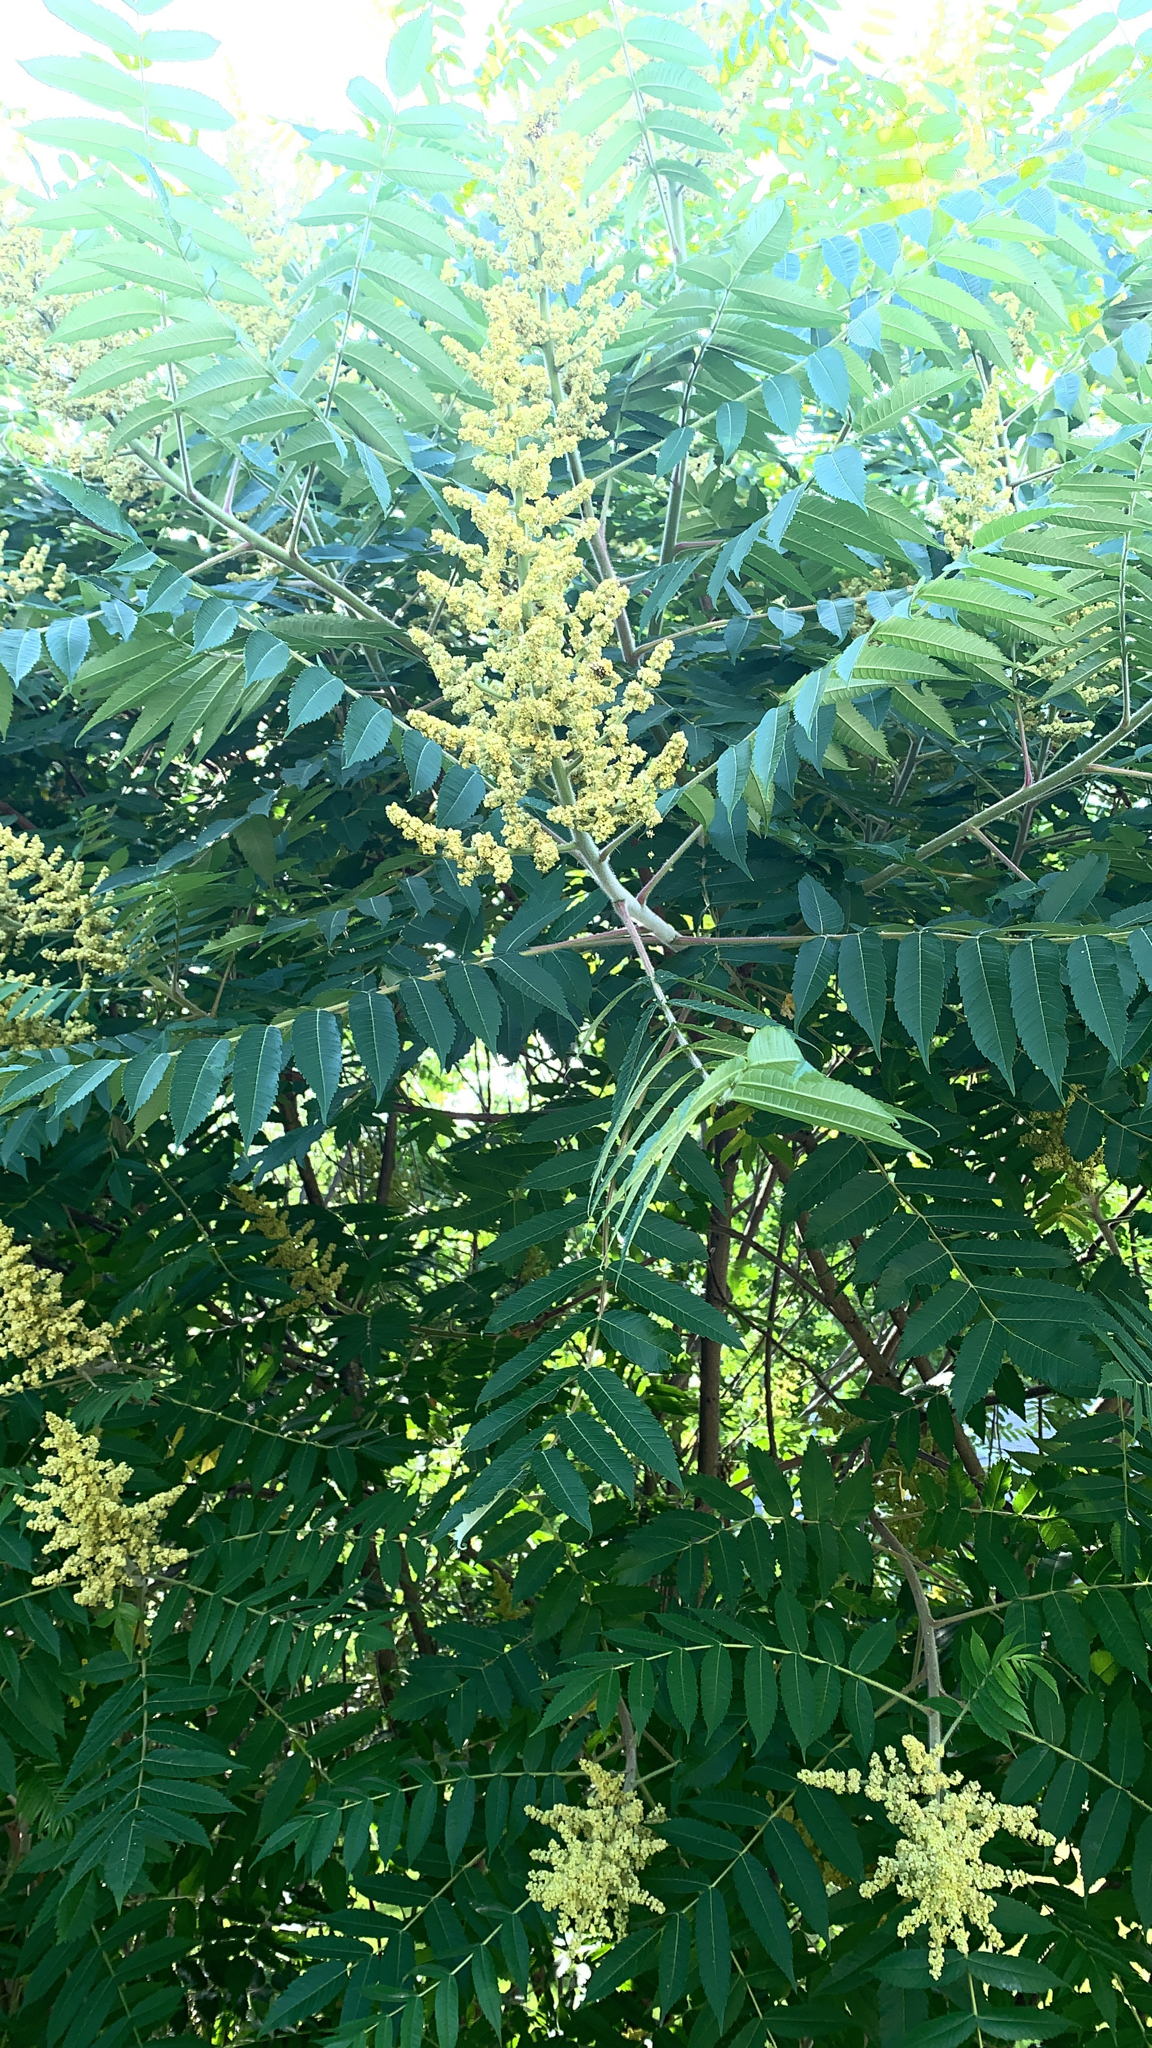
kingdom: Plantae
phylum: Tracheophyta
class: Magnoliopsida
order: Sapindales
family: Anacardiaceae
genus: Rhus
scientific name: Rhus typhina
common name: Staghorn sumac
